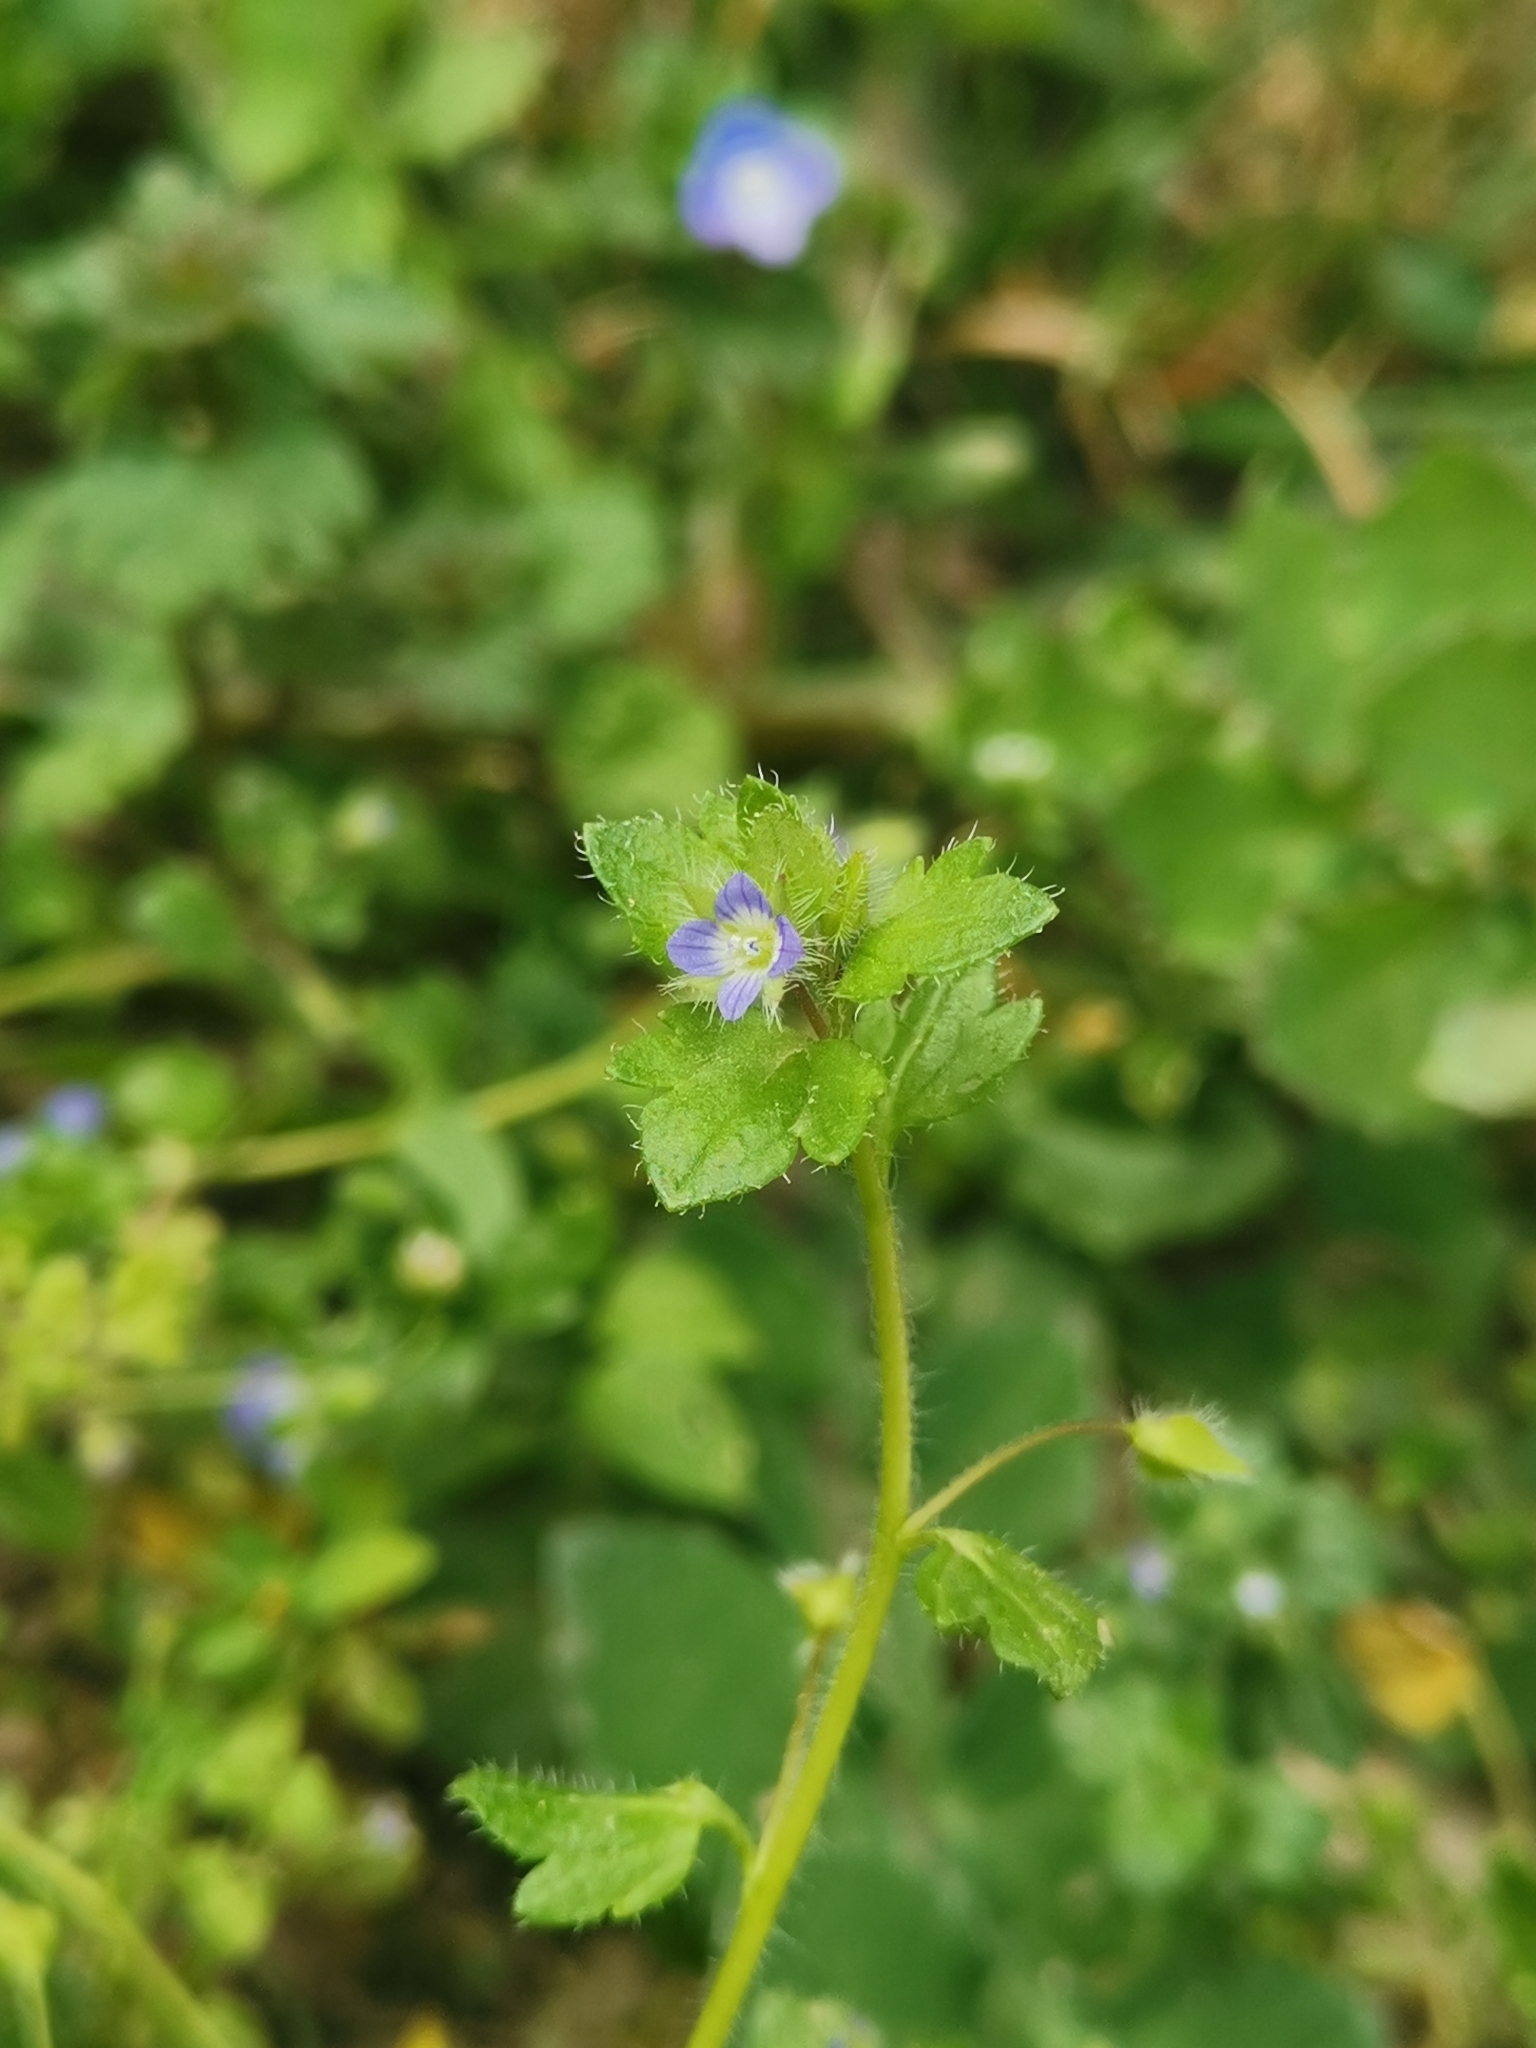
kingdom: Plantae
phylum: Tracheophyta
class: Magnoliopsida
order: Lamiales
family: Plantaginaceae
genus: Veronica
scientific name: Veronica hederifolia
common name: Ivy-leaved speedwell
